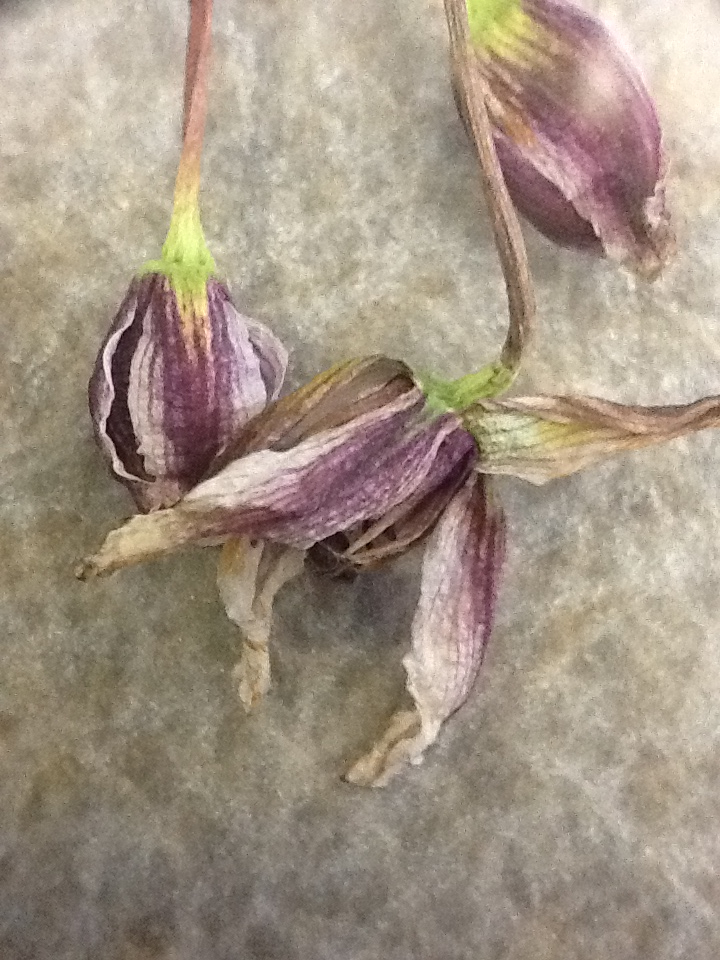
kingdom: Plantae
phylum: Tracheophyta
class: Liliopsida
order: Alismatales
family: Butomaceae
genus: Butomus
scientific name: Butomus umbellatus
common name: Flowering-rush
